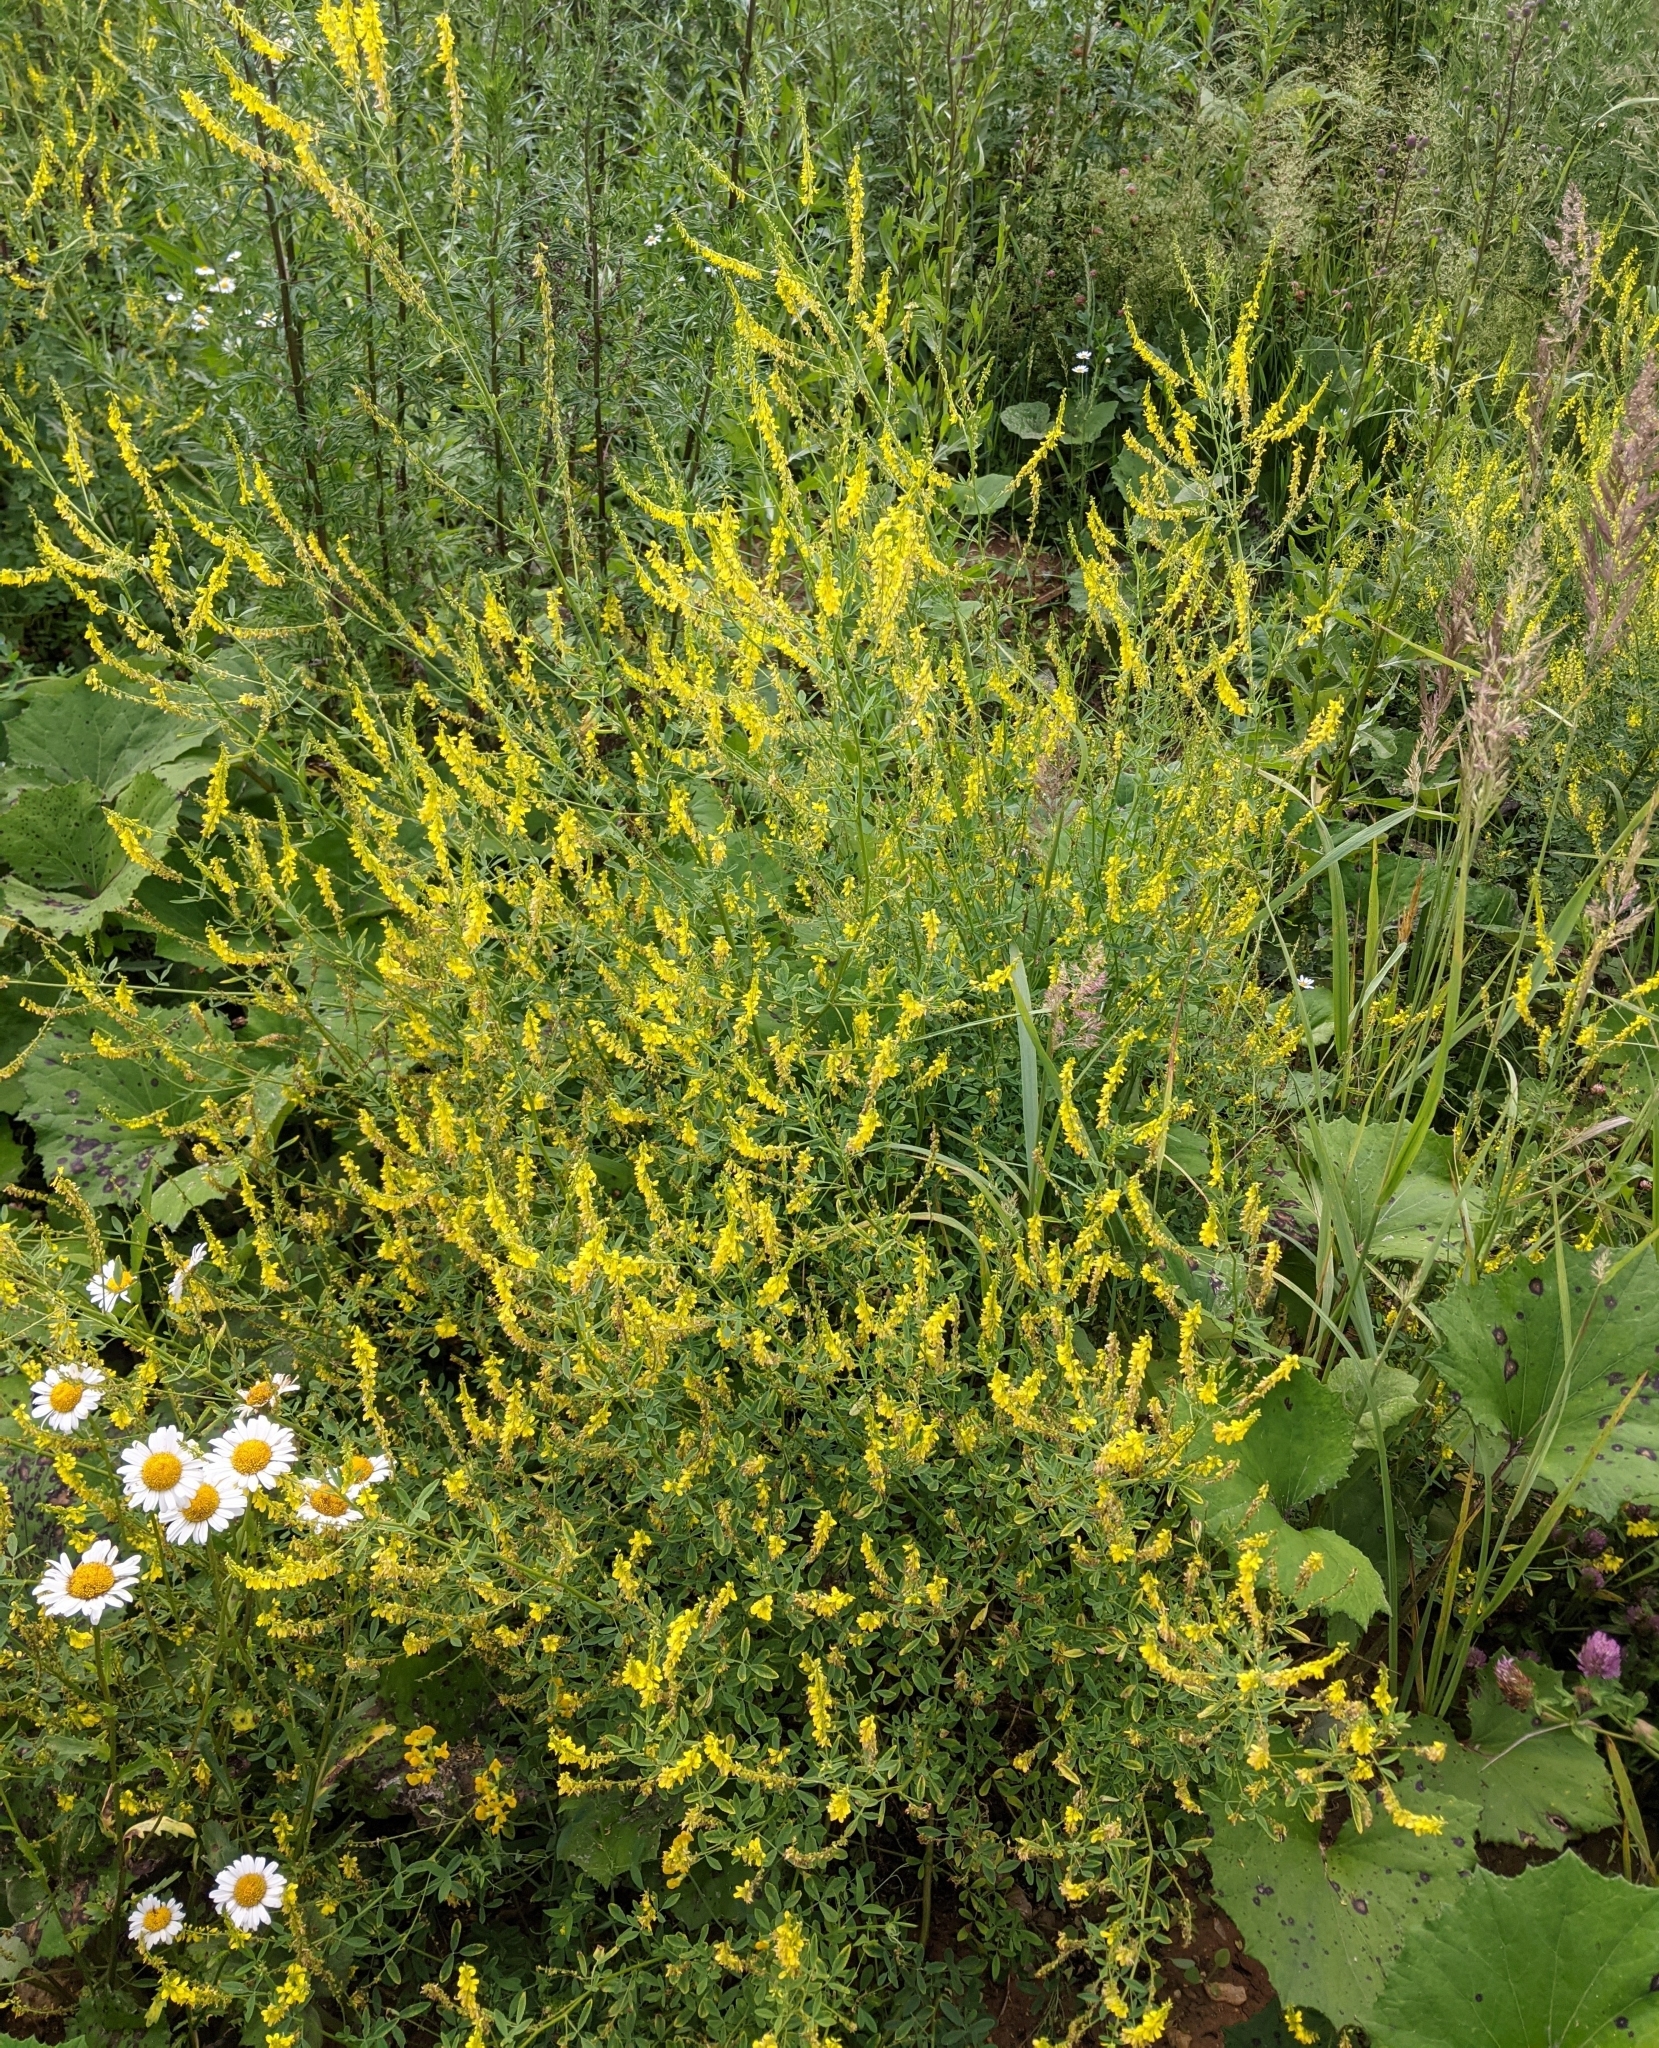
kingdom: Plantae
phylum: Tracheophyta
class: Magnoliopsida
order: Fabales
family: Fabaceae
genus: Melilotus
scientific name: Melilotus officinalis
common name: Sweetclover
